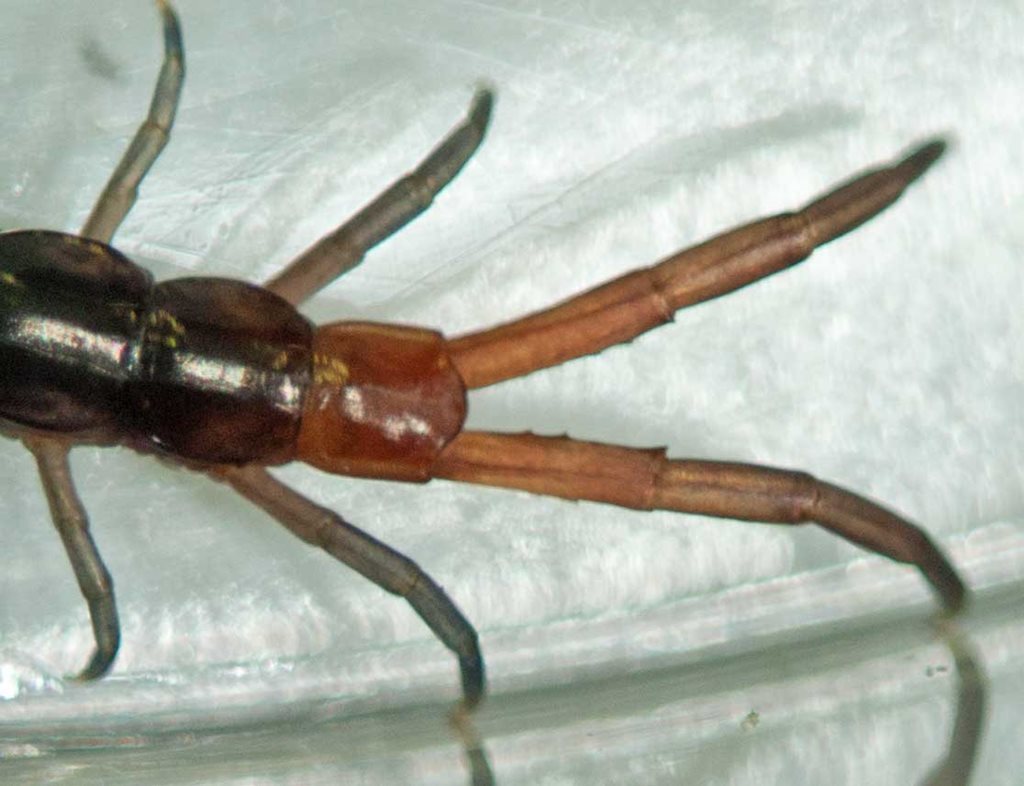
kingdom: Animalia
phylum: Arthropoda
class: Chilopoda
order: Scolopendromorpha
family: Scolopendridae
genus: Cormocephalus
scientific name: Cormocephalus westwoodi
